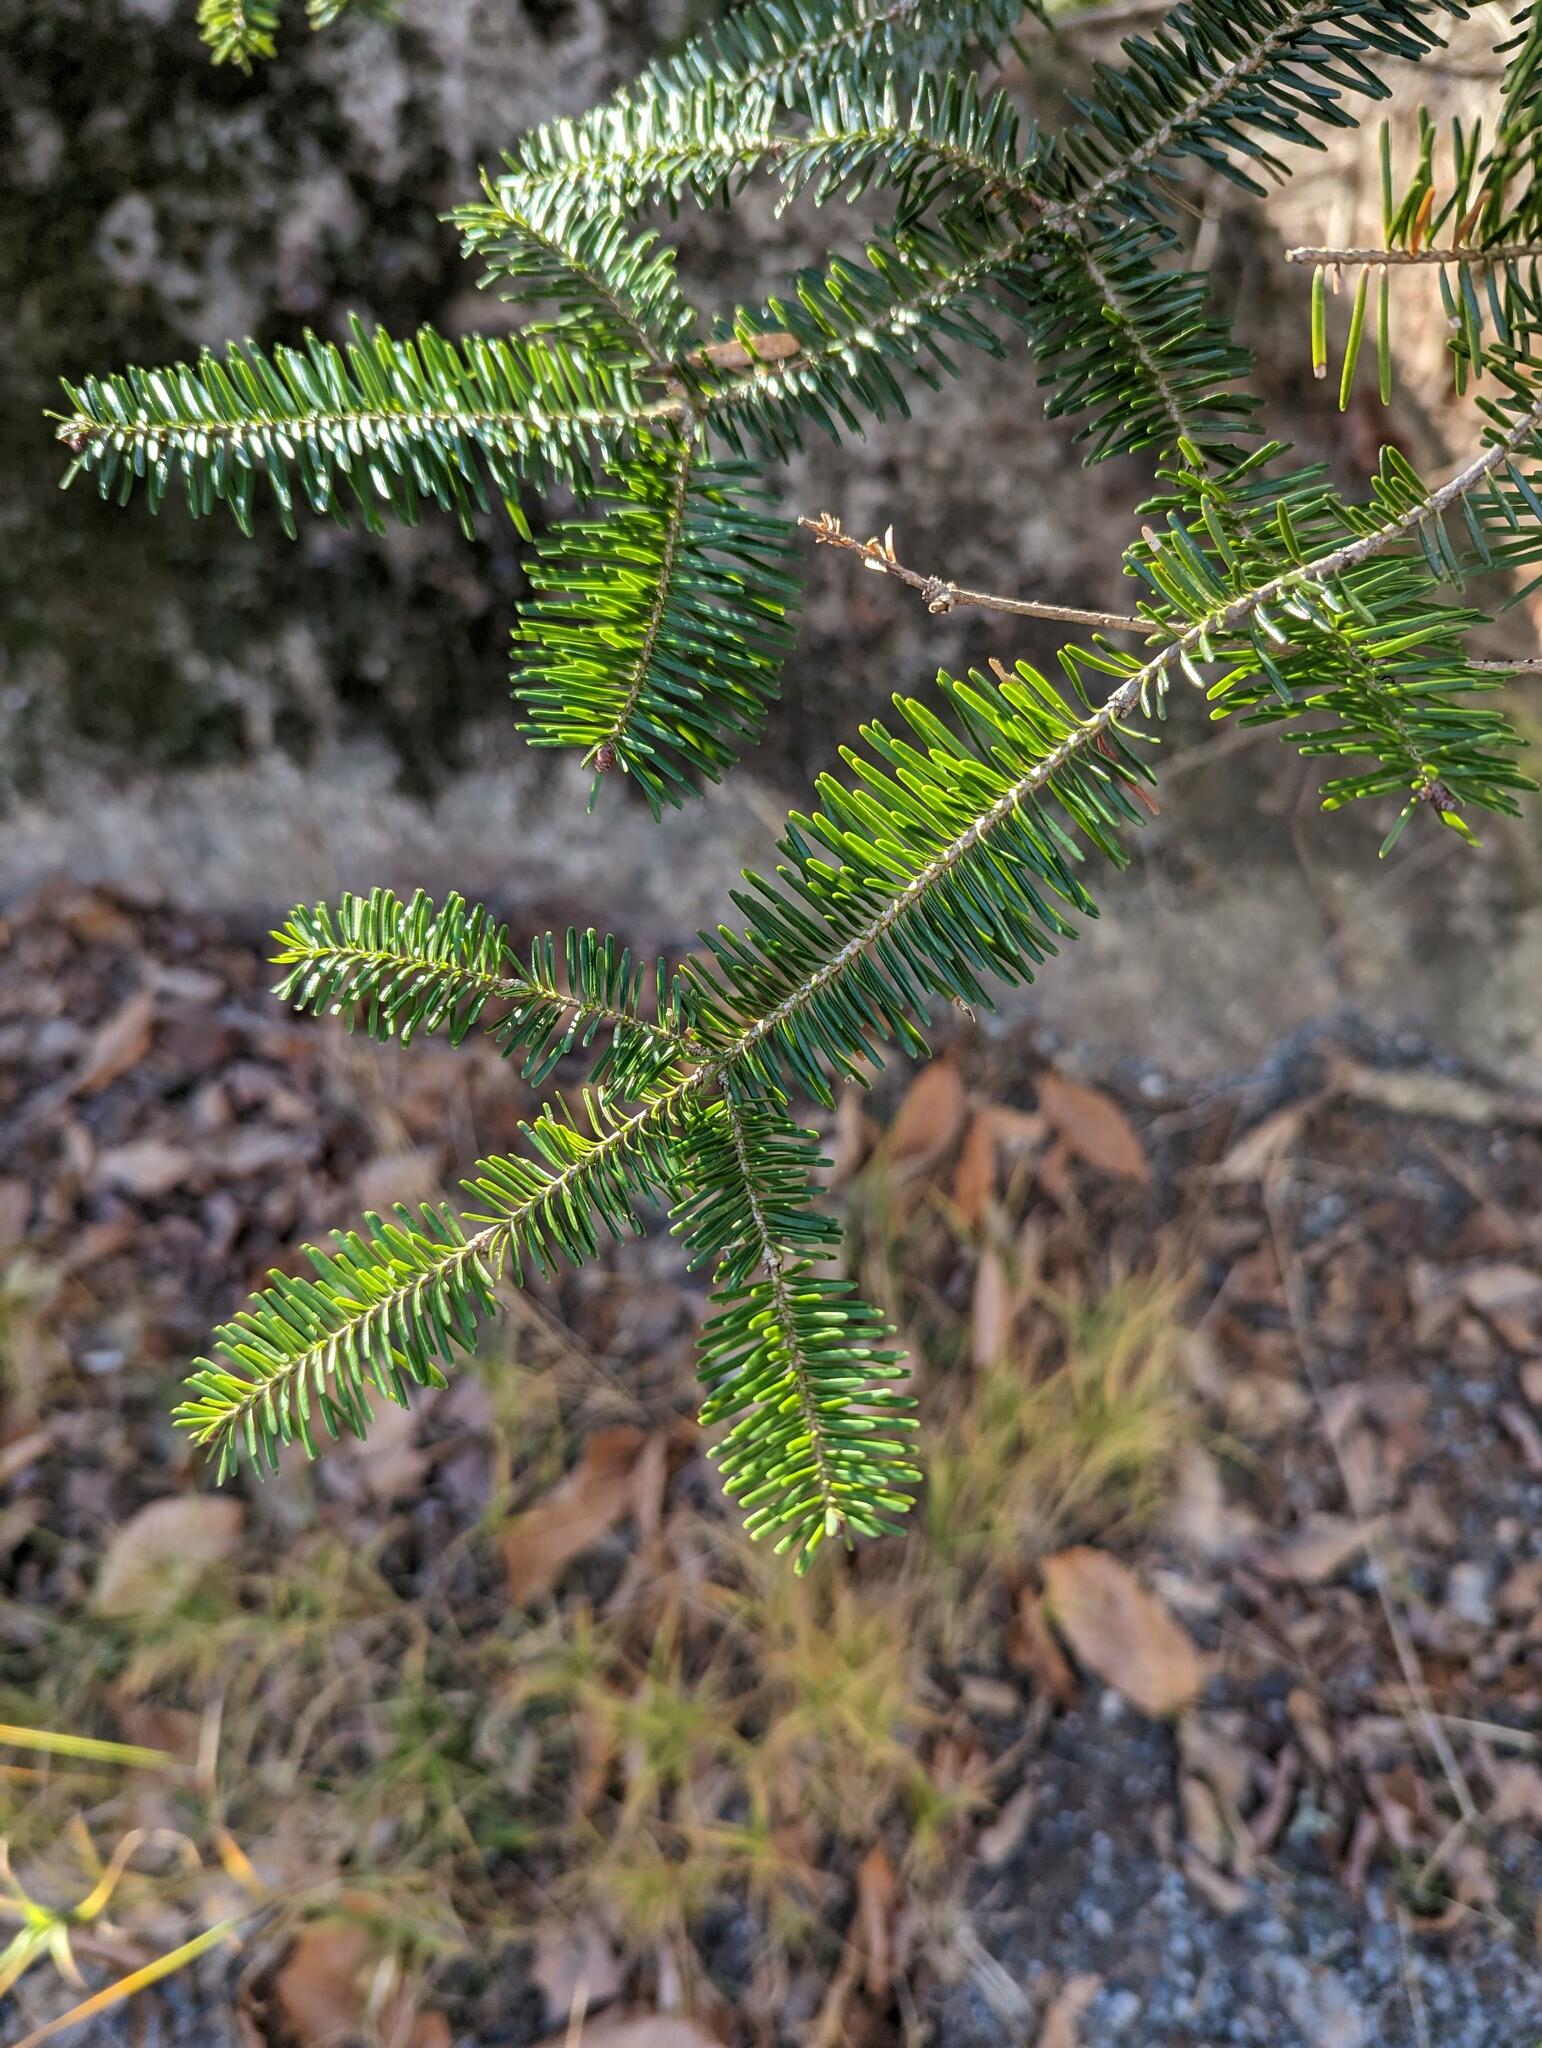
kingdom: Plantae
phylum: Tracheophyta
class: Pinopsida
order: Pinales
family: Pinaceae
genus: Abies
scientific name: Abies balsamea
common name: Balsam fir
